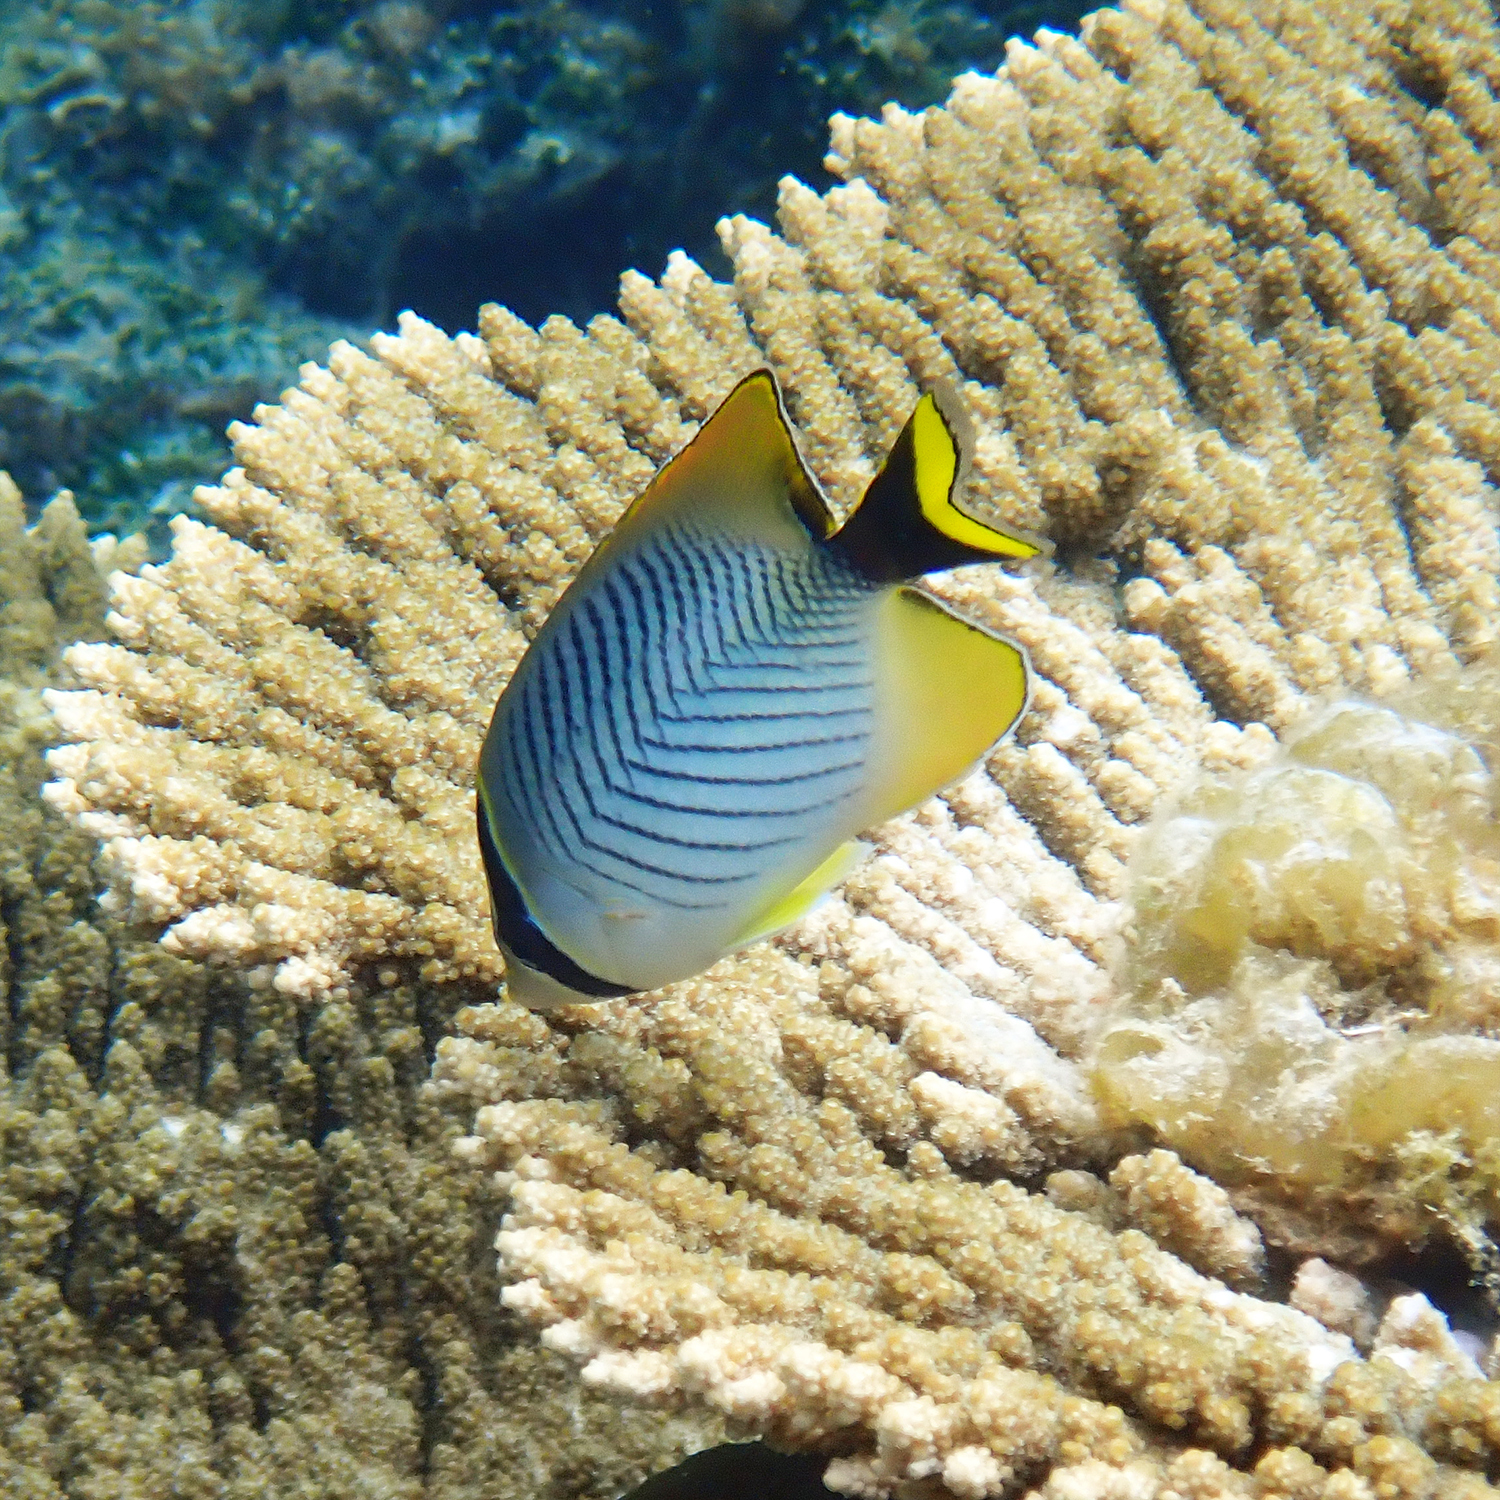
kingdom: Animalia
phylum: Chordata
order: Perciformes
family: Chaetodontidae
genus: Chaetodon
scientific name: Chaetodon trifascialis
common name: Chevroned butterflyfish
